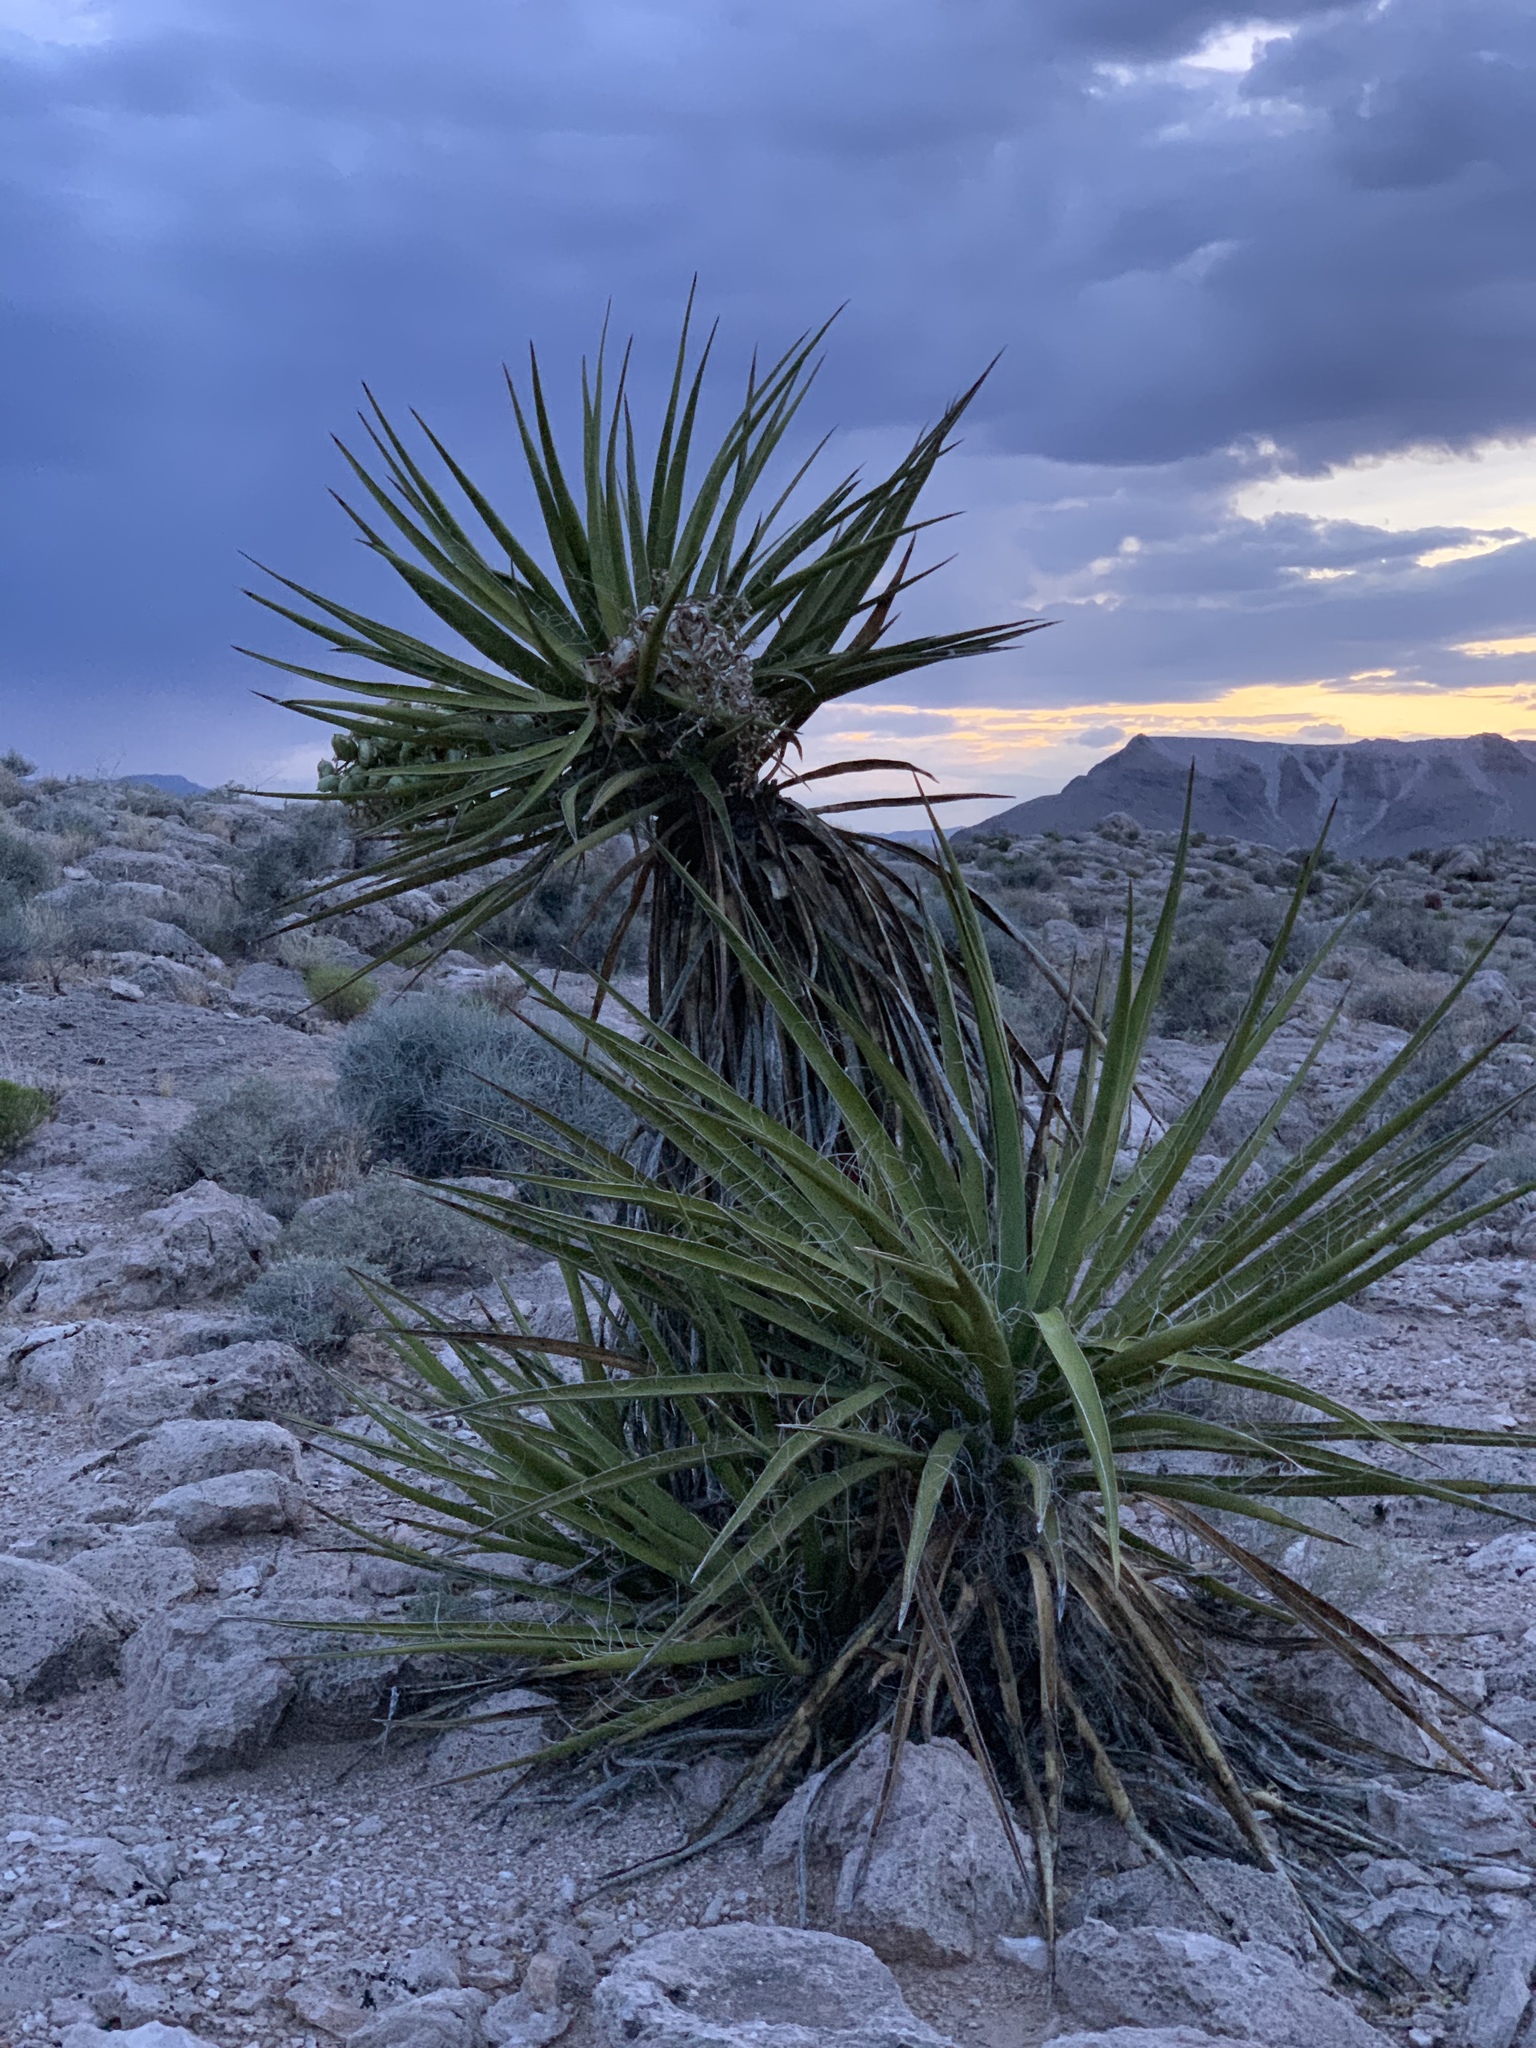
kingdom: Plantae
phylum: Tracheophyta
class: Liliopsida
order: Asparagales
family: Asparagaceae
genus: Yucca
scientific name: Yucca schidigera
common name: Mojave yucca
